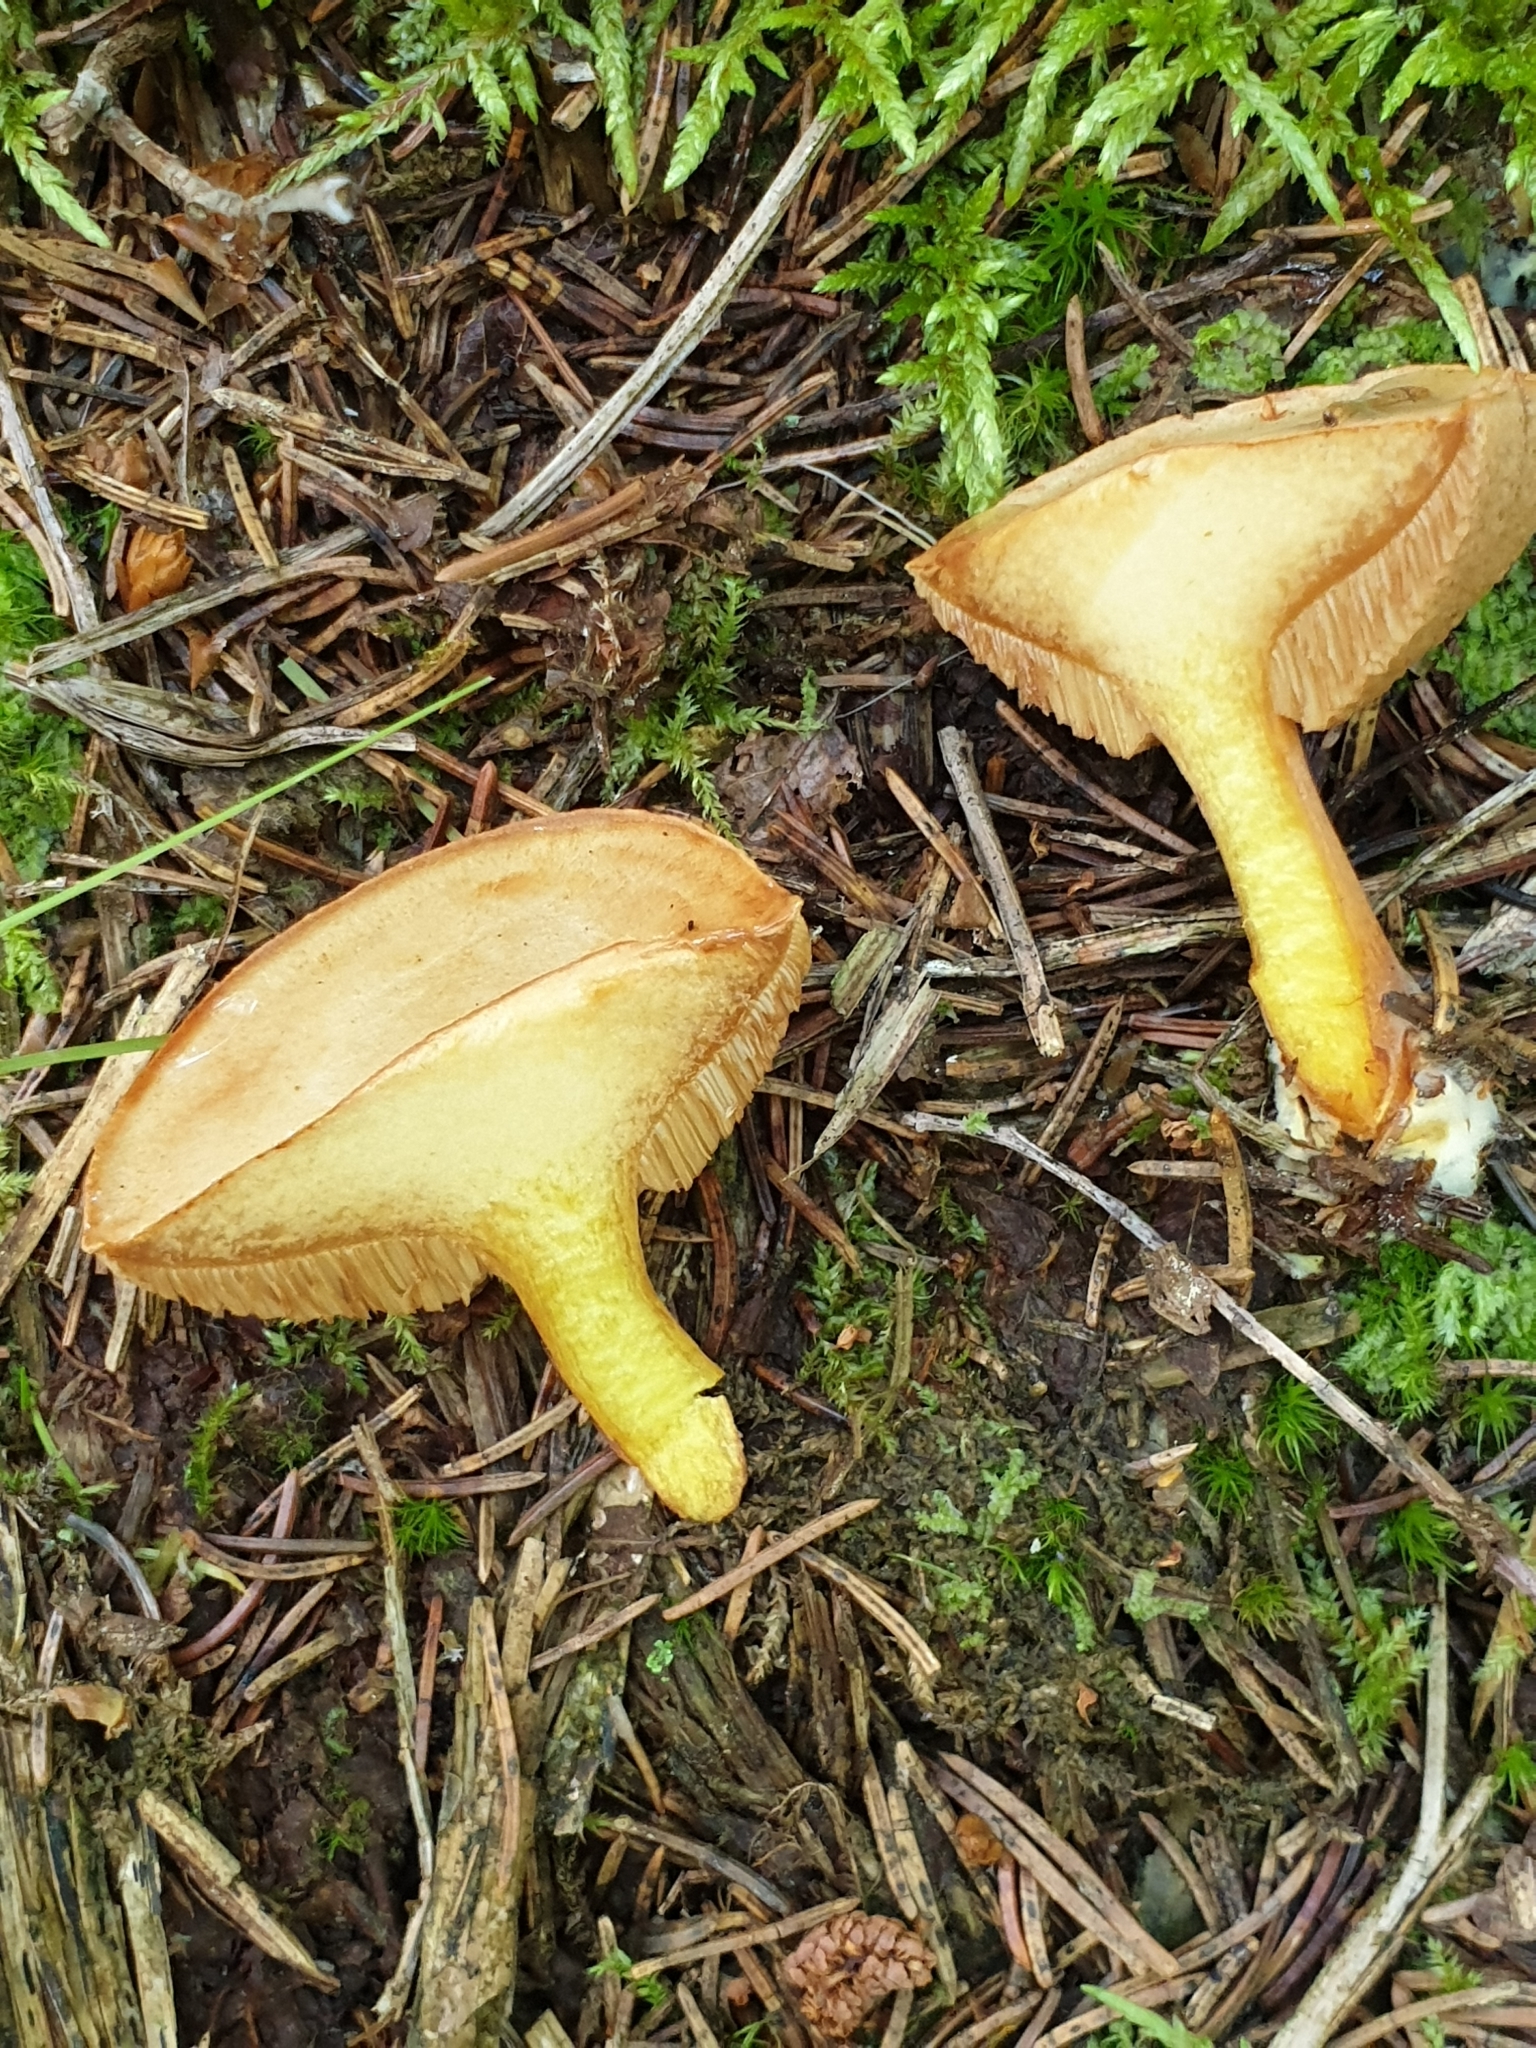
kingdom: Fungi
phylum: Basidiomycota
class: Agaricomycetes
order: Boletales
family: Boletaceae
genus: Chalciporus
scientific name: Chalciporus piperatus
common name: Peppery bolete
